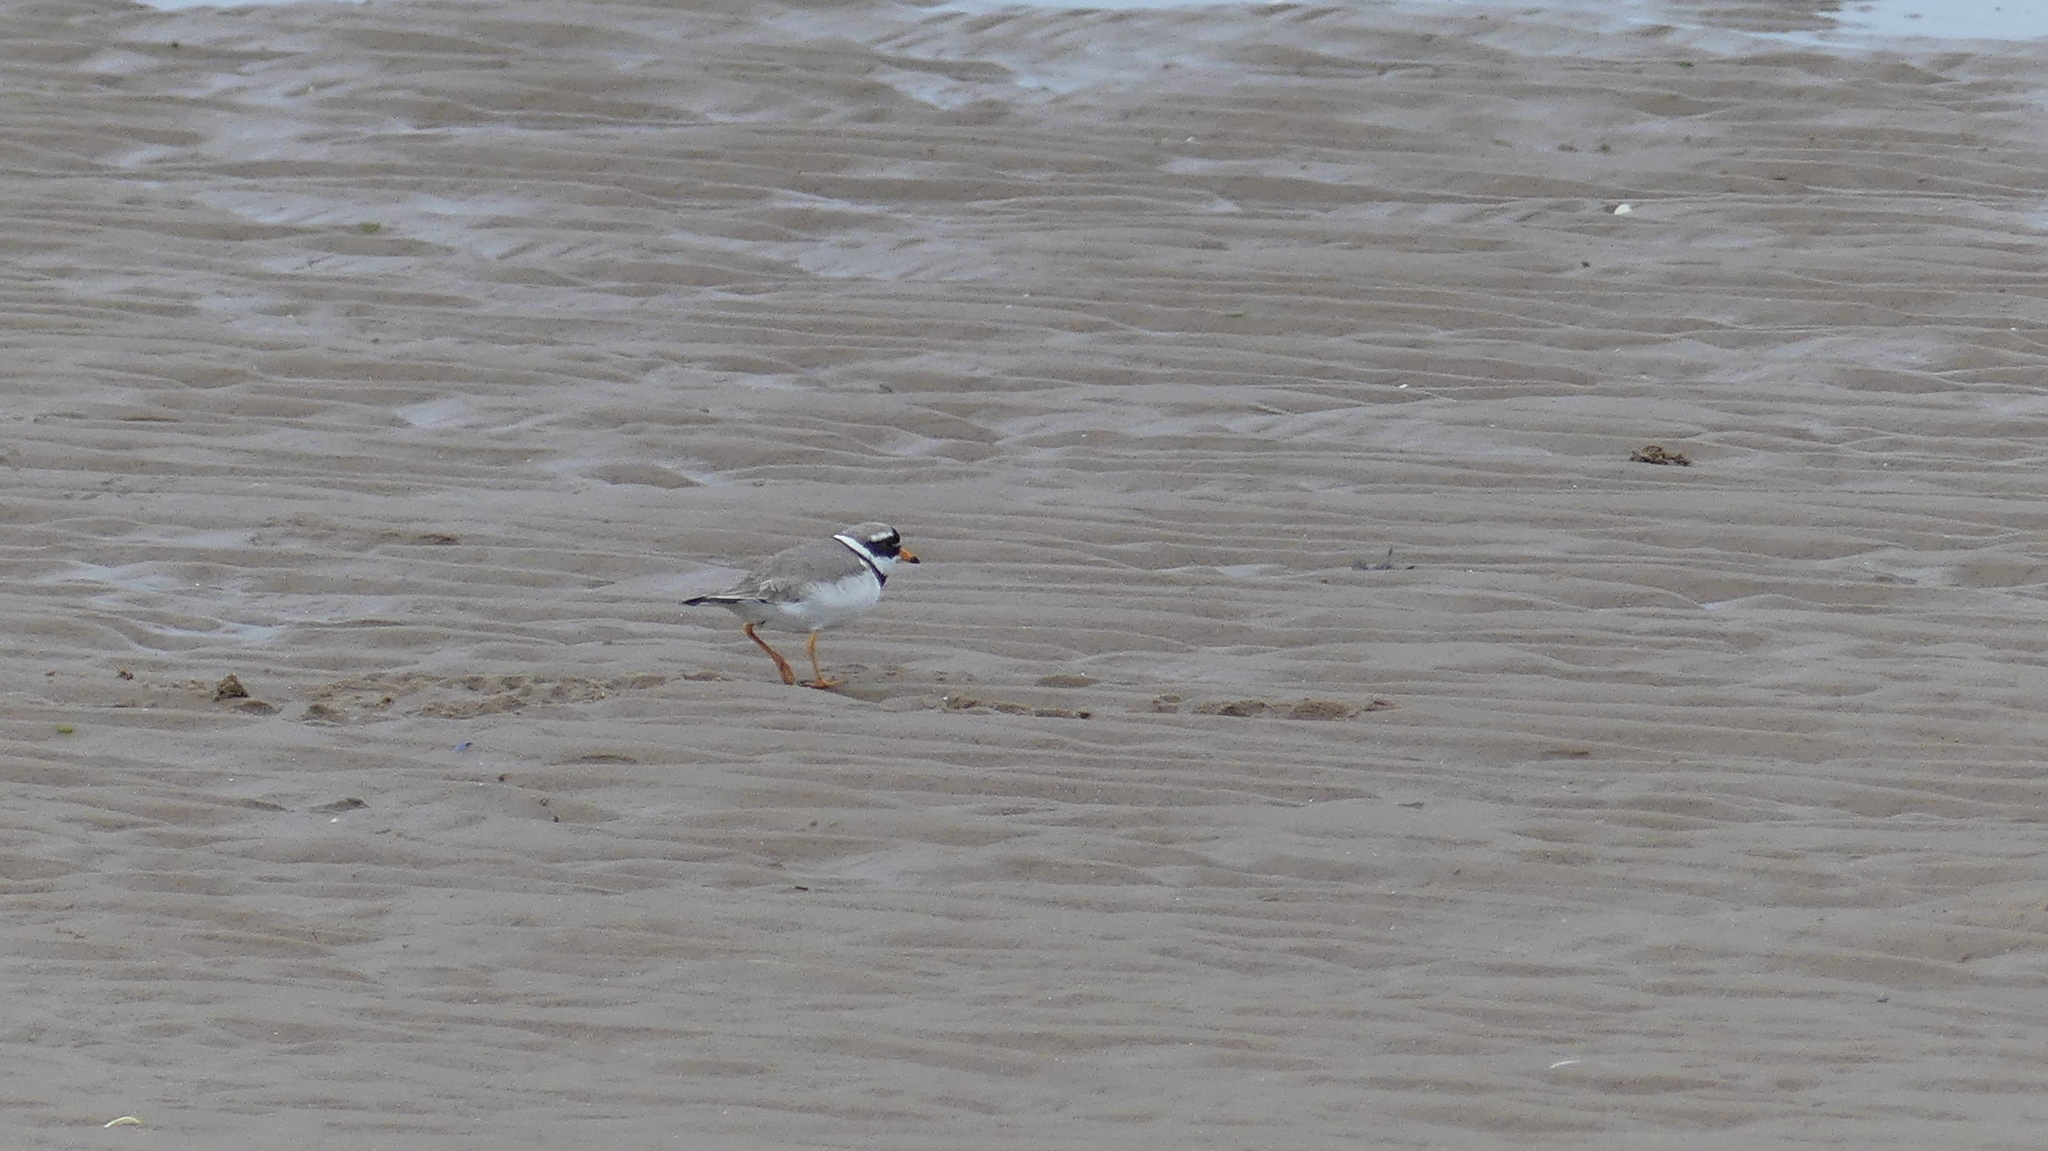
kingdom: Animalia
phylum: Chordata
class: Aves
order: Charadriiformes
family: Charadriidae
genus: Charadrius
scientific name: Charadrius hiaticula
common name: Common ringed plover
